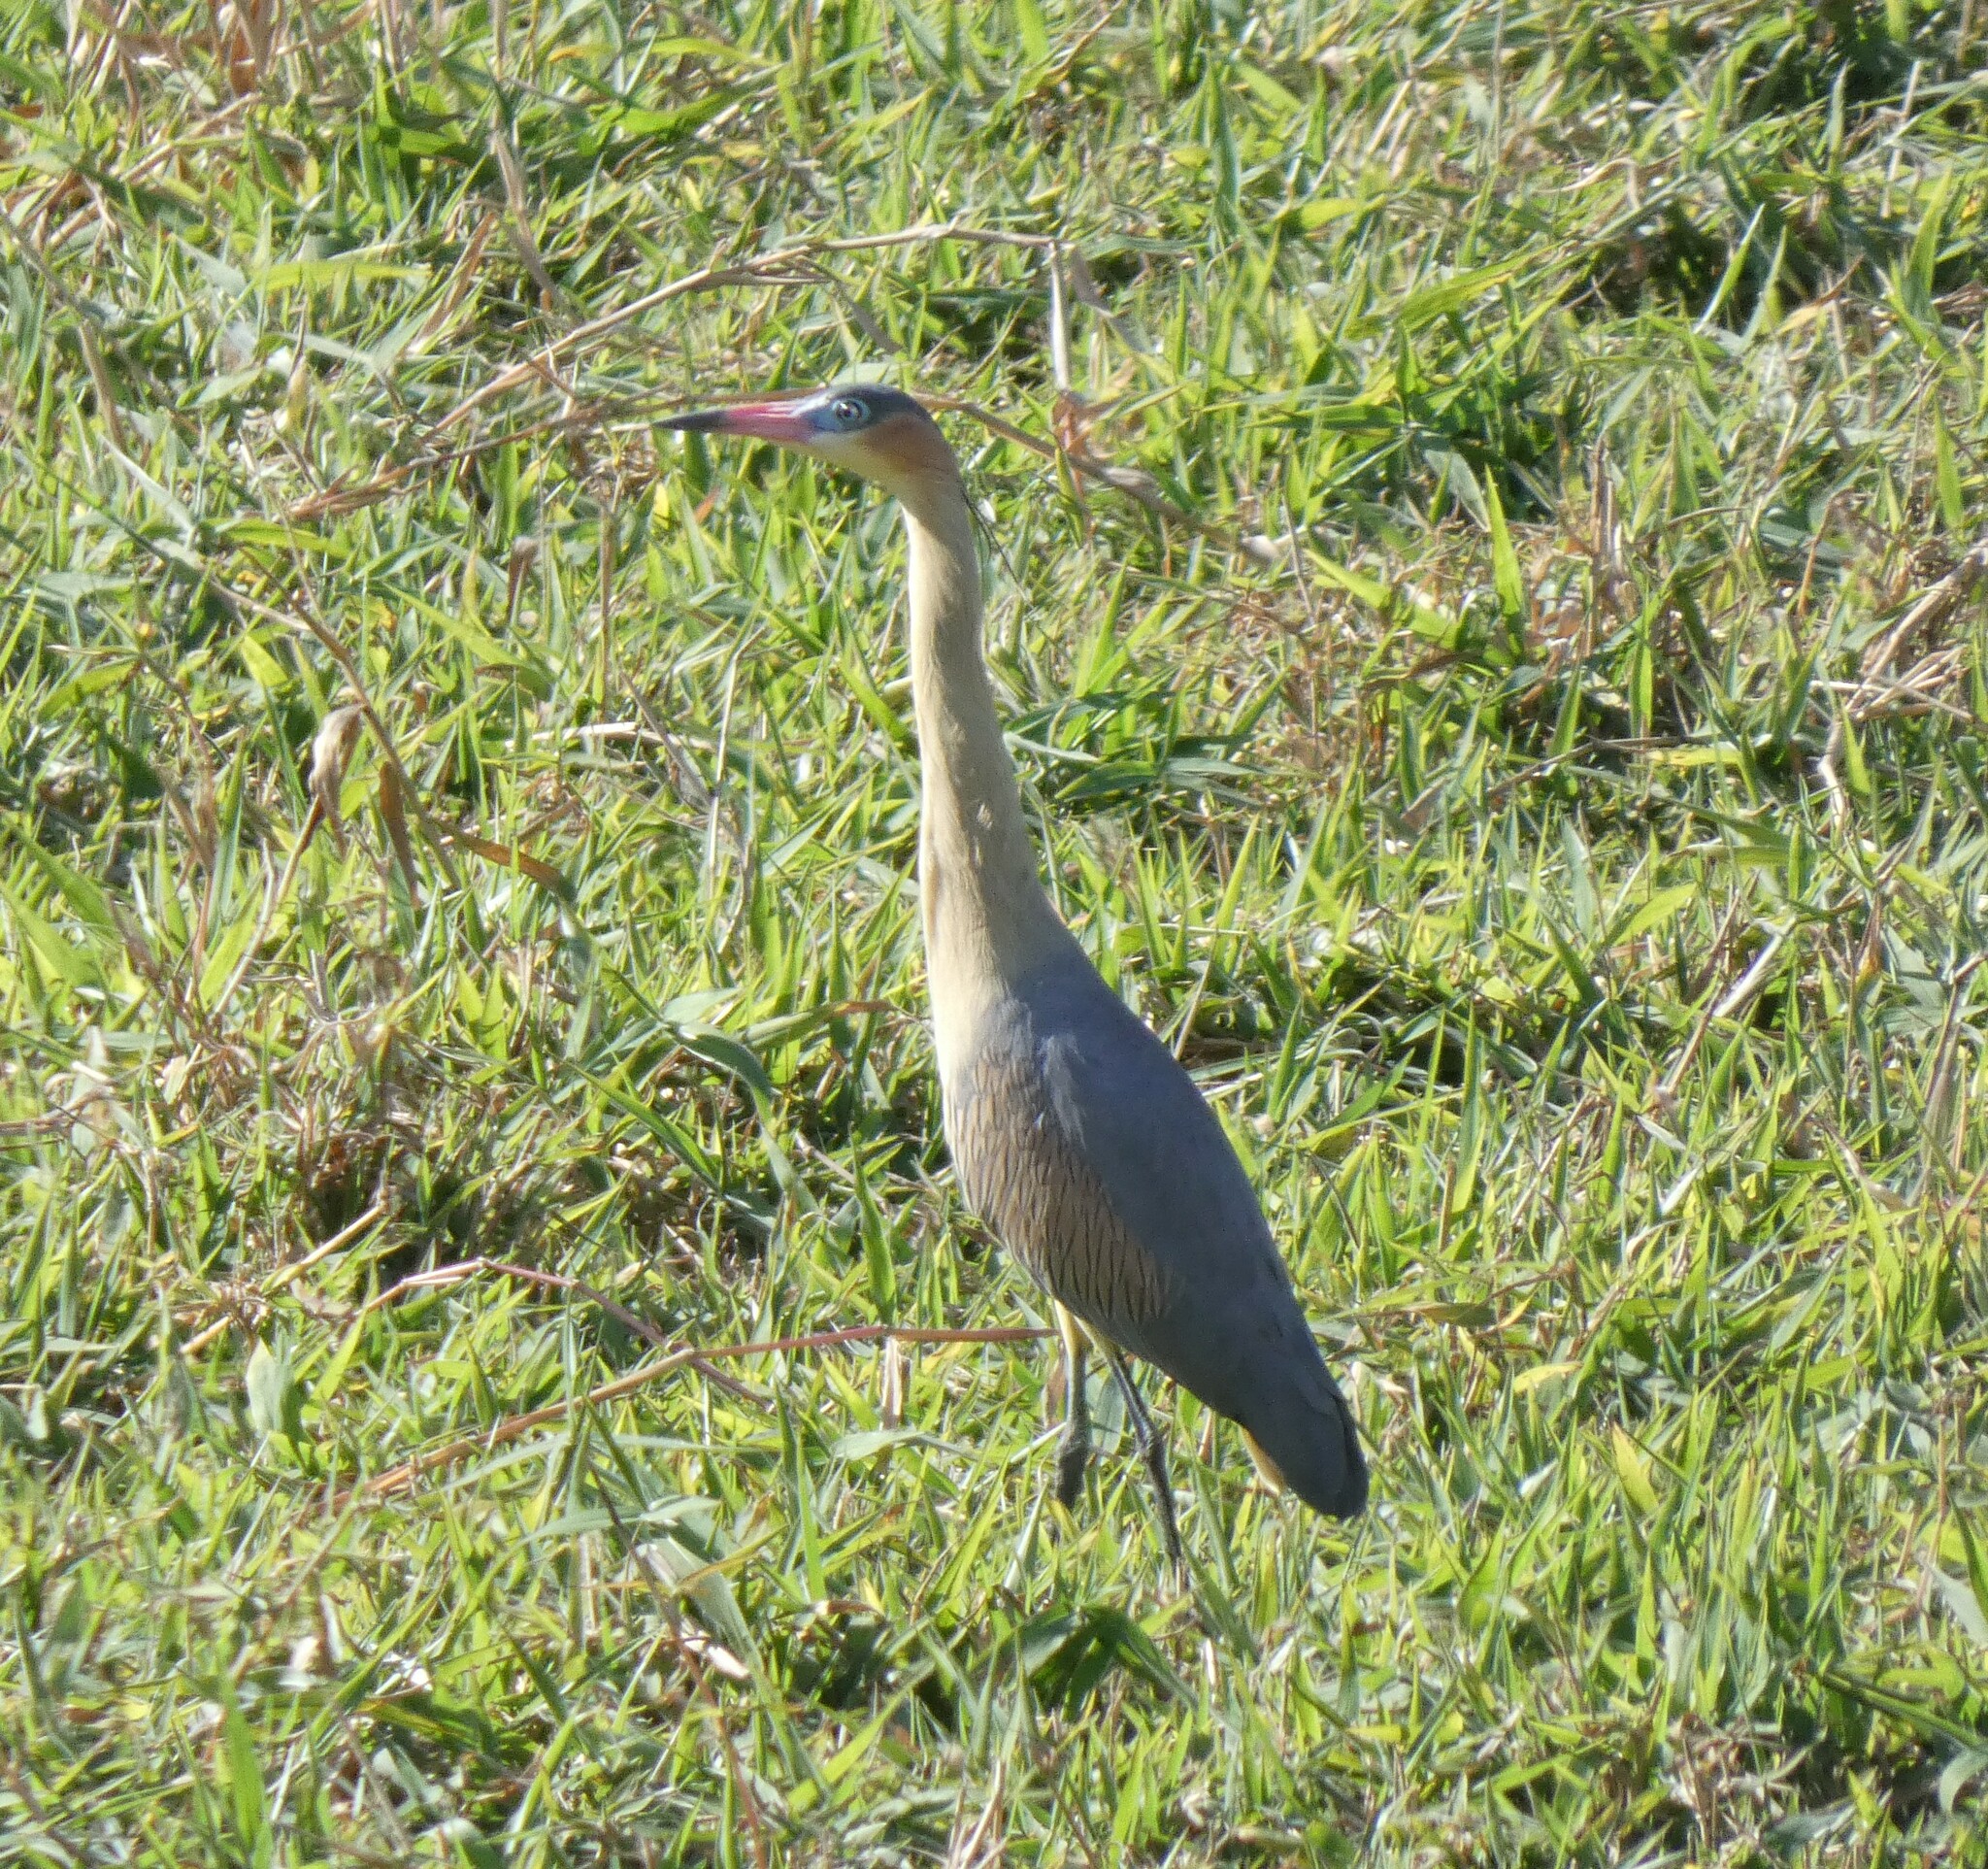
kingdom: Animalia
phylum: Chordata
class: Aves
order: Pelecaniformes
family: Ardeidae
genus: Syrigma
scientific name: Syrigma sibilatrix
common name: Whistling heron
